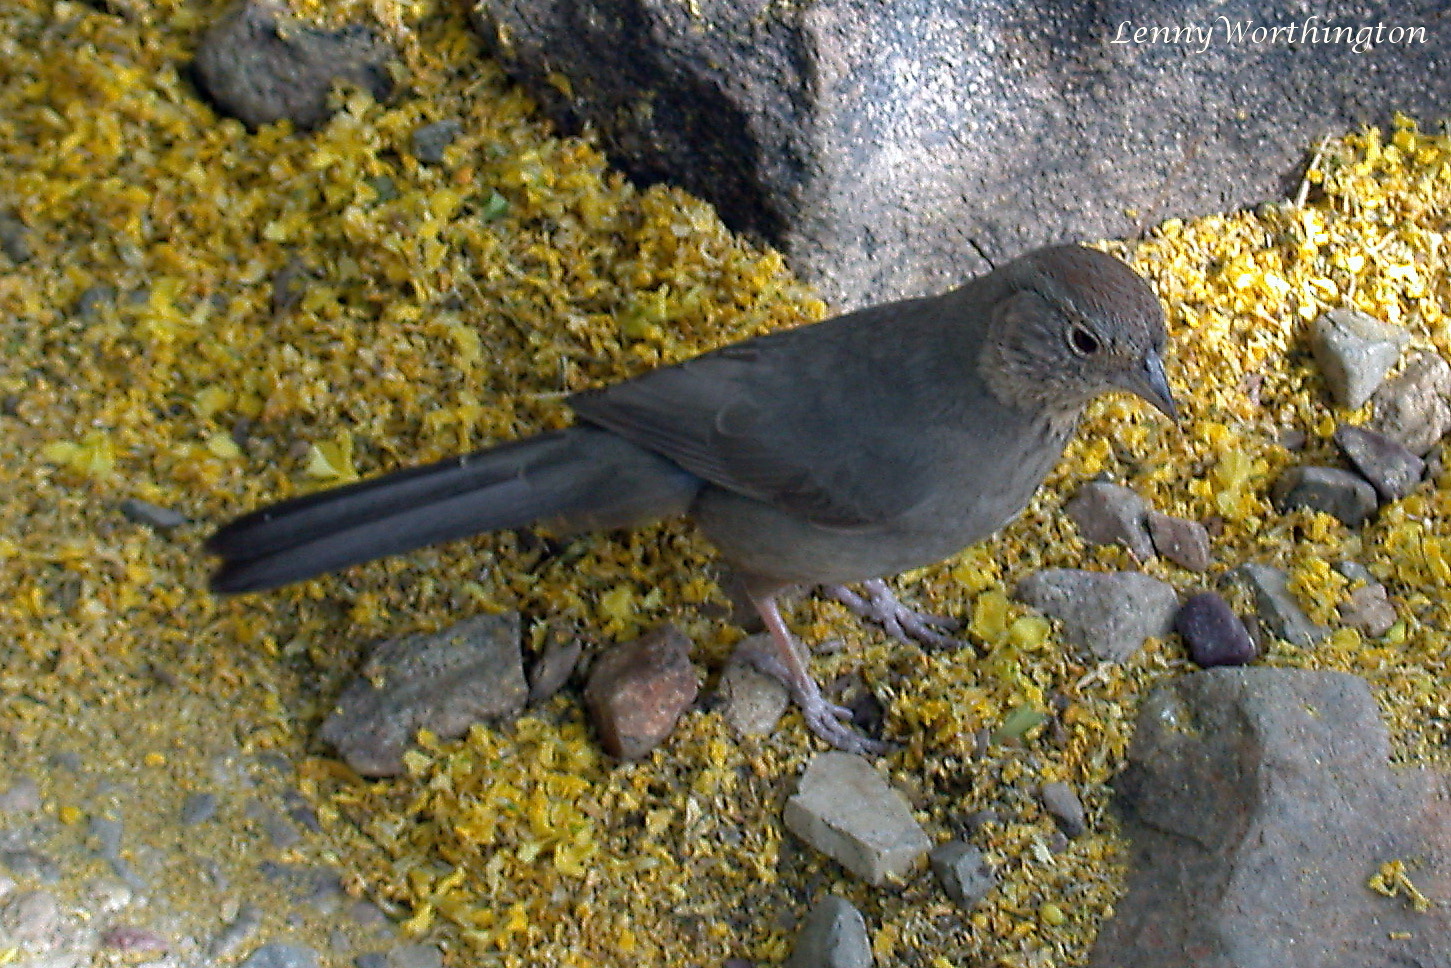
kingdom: Animalia
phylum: Chordata
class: Aves
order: Passeriformes
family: Passerellidae
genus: Melozone
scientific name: Melozone fusca
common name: Canyon towhee
